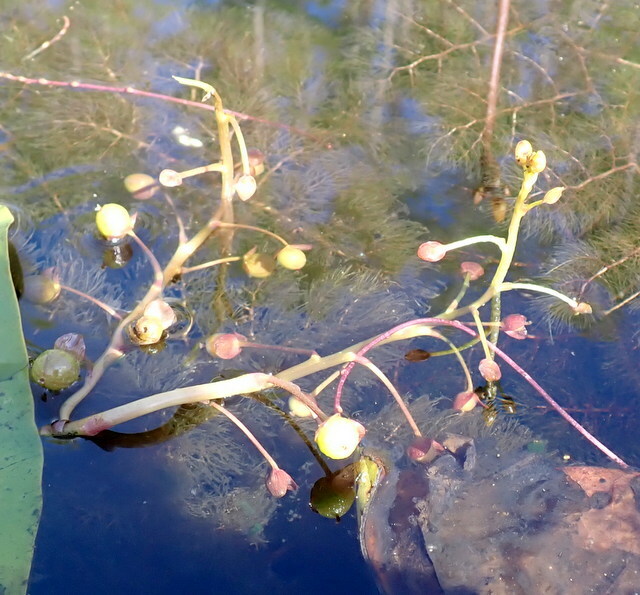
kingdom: Plantae
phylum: Tracheophyta
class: Magnoliopsida
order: Lamiales
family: Lentibulariaceae
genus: Utricularia
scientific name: Utricularia foliosa
